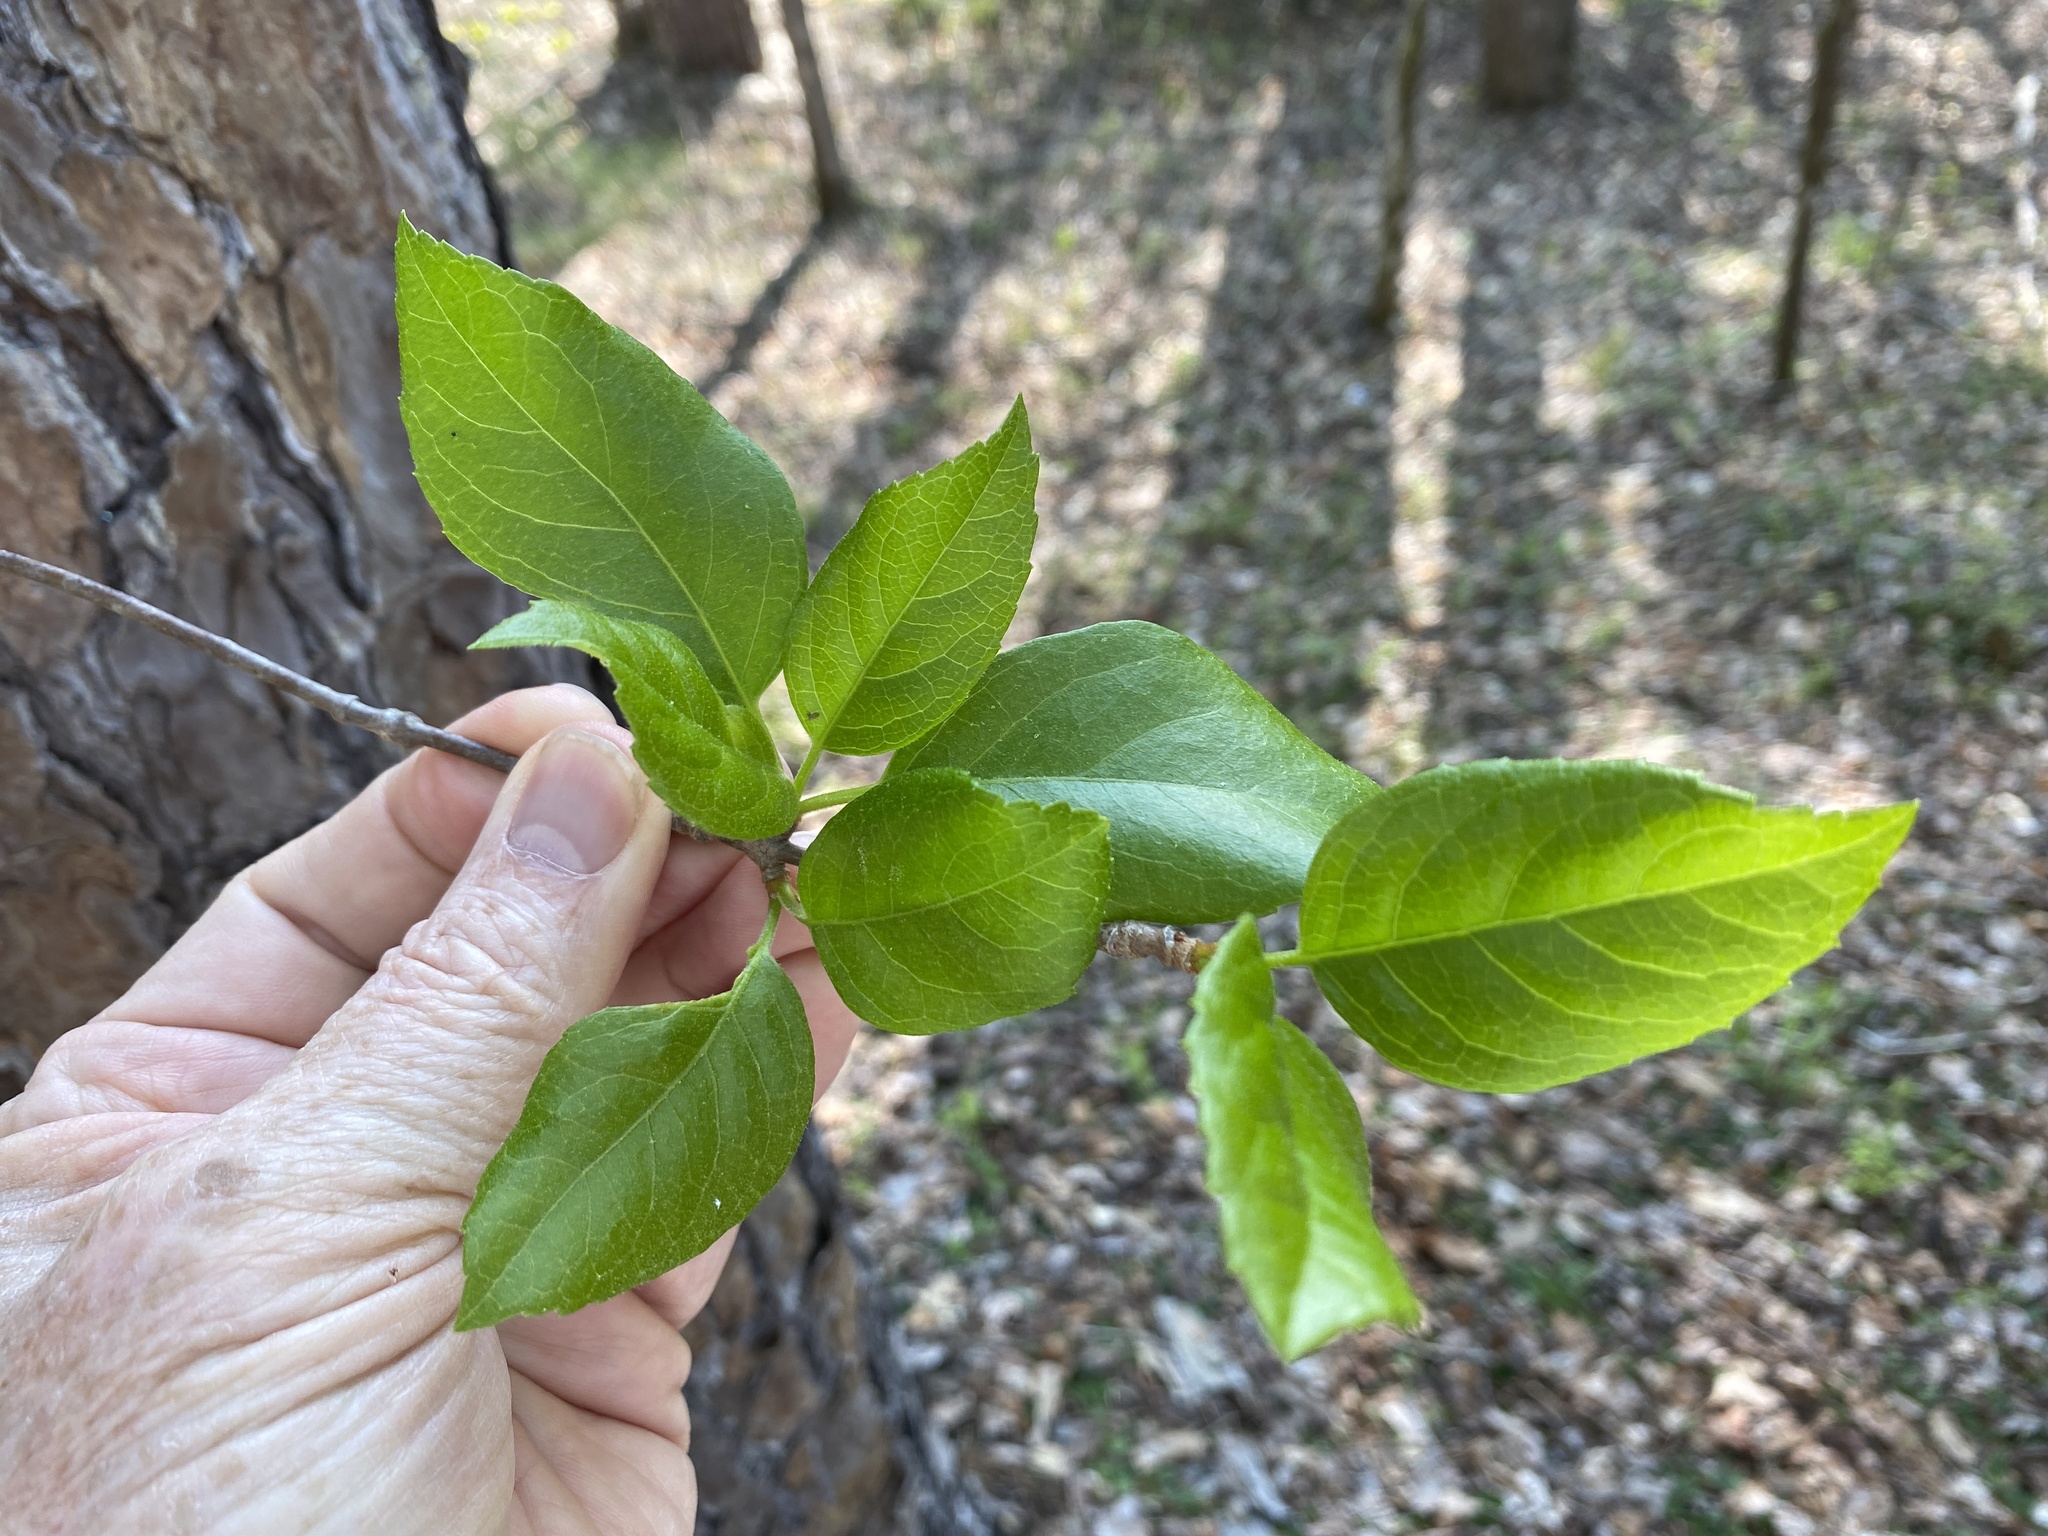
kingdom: Plantae
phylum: Tracheophyta
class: Magnoliopsida
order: Cornales
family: Hydrangeaceae
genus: Hydrangea
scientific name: Hydrangea barbara
